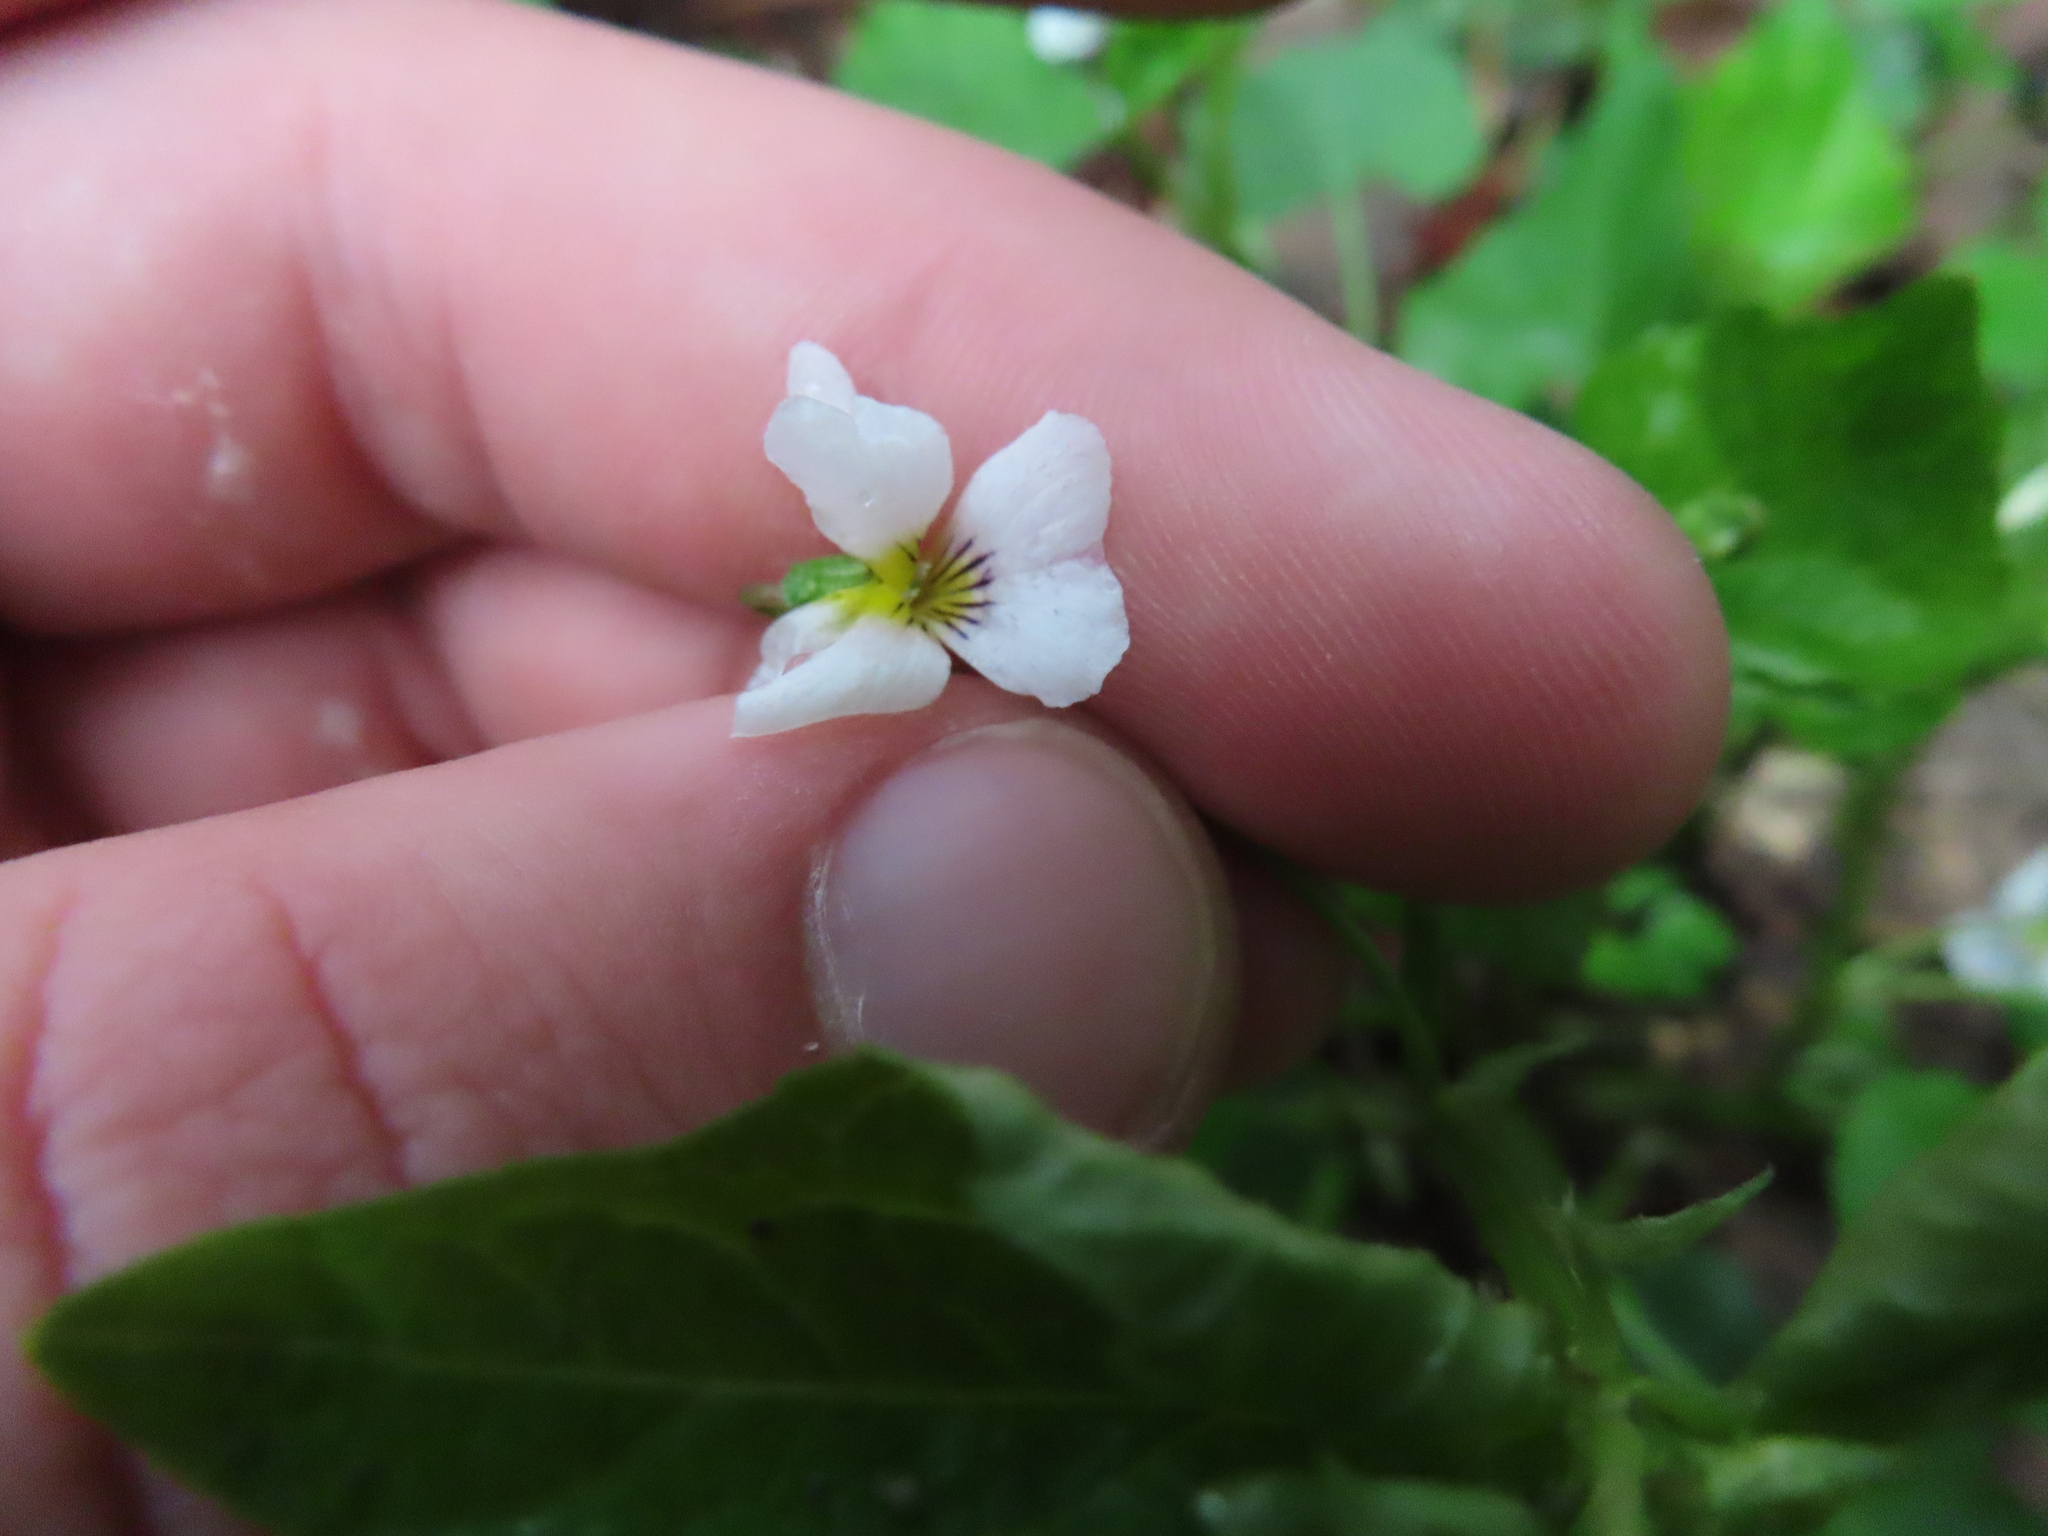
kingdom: Plantae
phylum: Tracheophyta
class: Magnoliopsida
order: Malpighiales
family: Violaceae
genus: Viola
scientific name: Viola canadensis
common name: Canada violet
